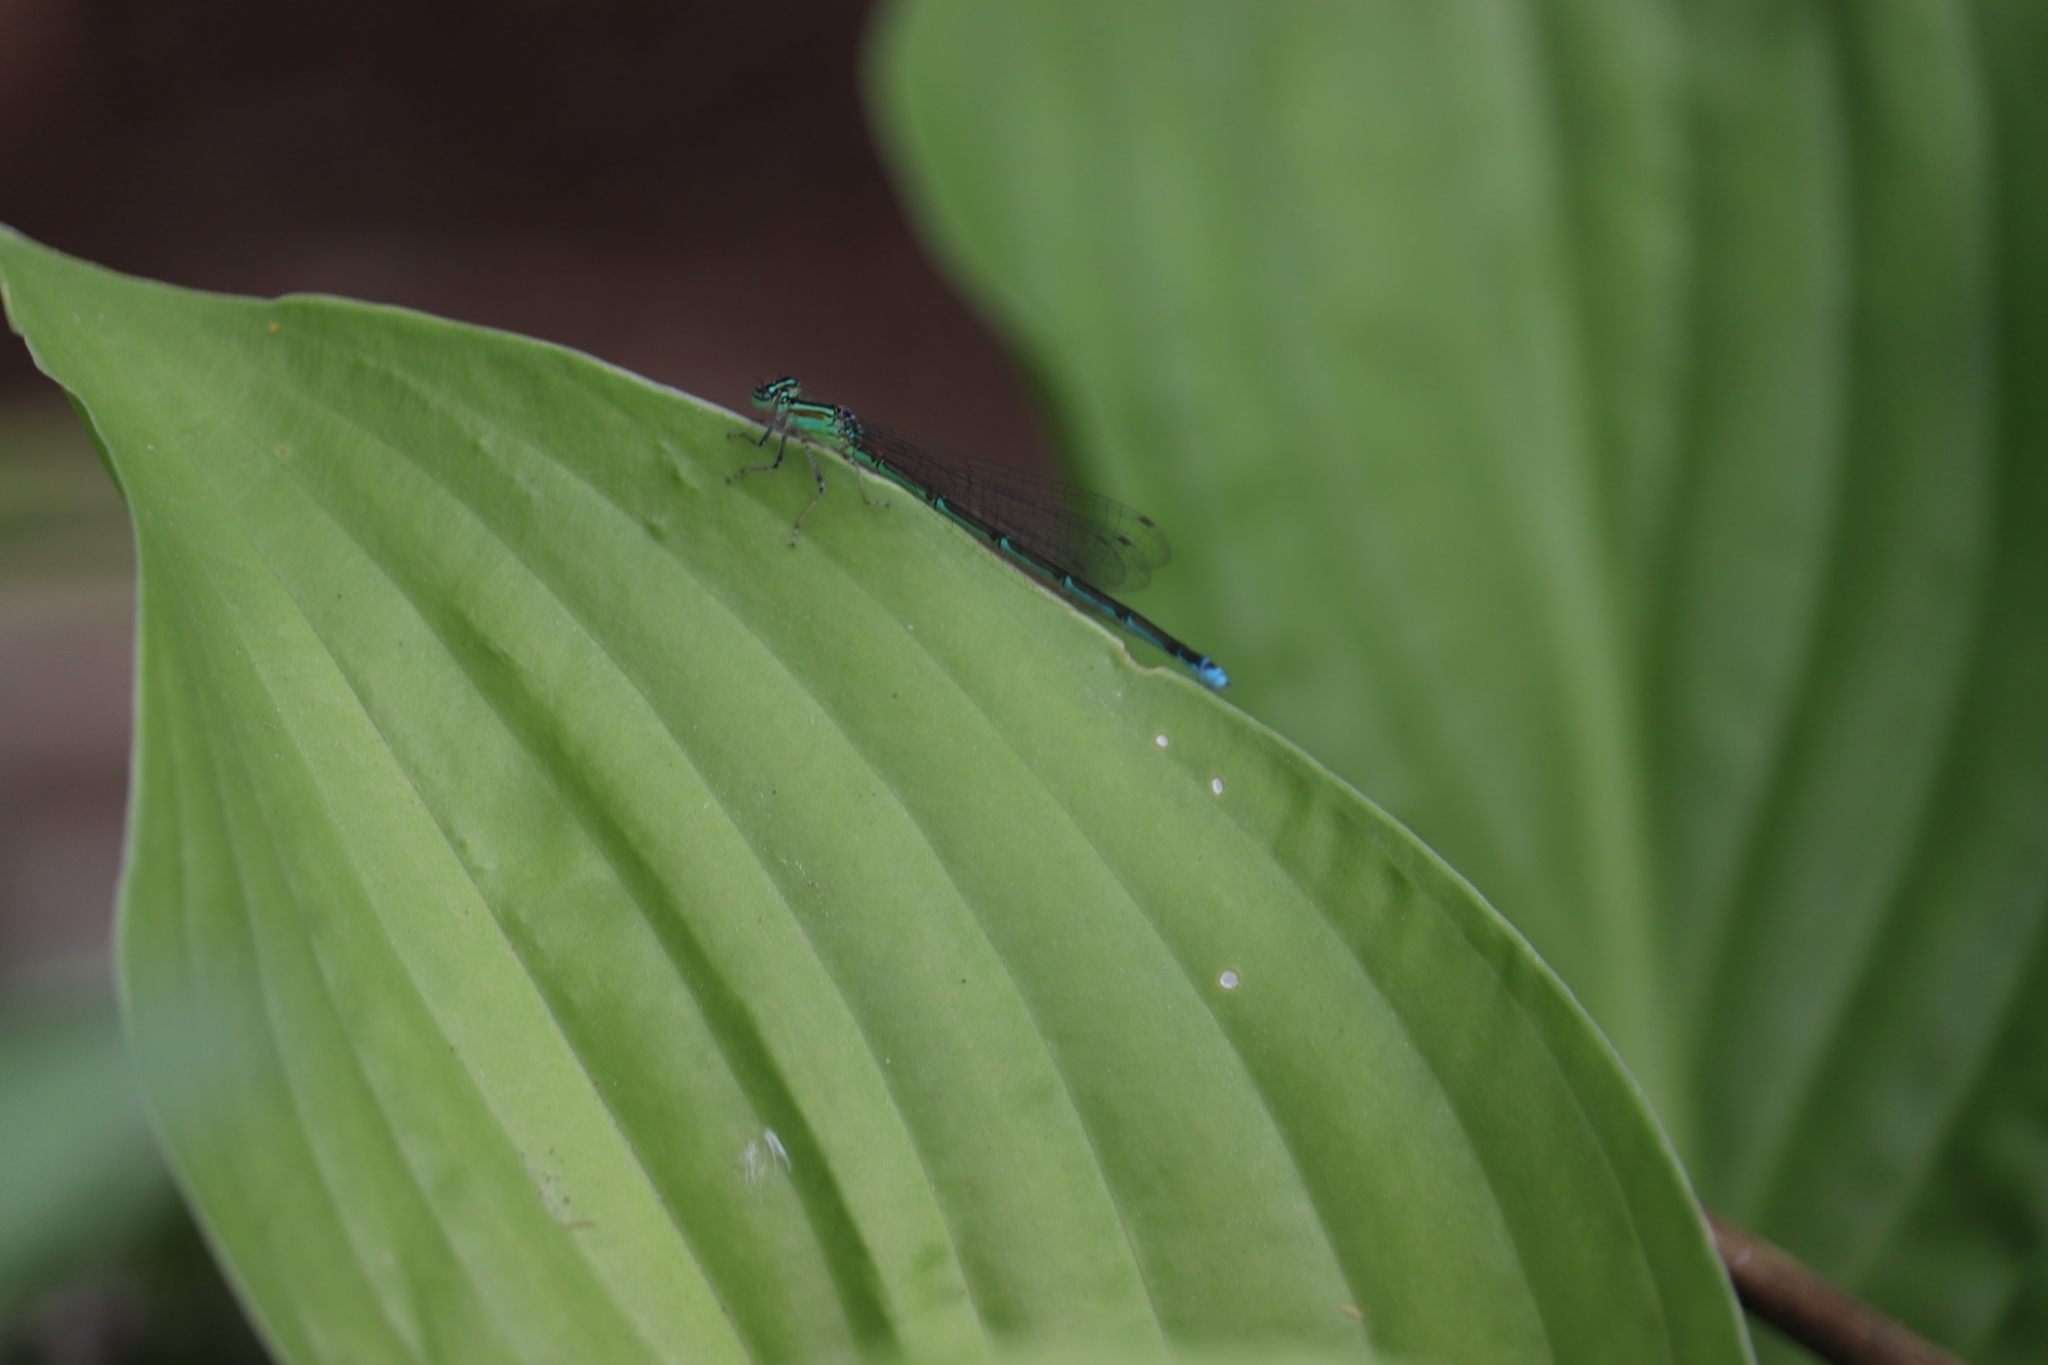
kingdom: Animalia
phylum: Arthropoda
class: Insecta
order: Odonata
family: Coenagrionidae
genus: Enallagma
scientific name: Enallagma exsulans
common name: Stream bluet
